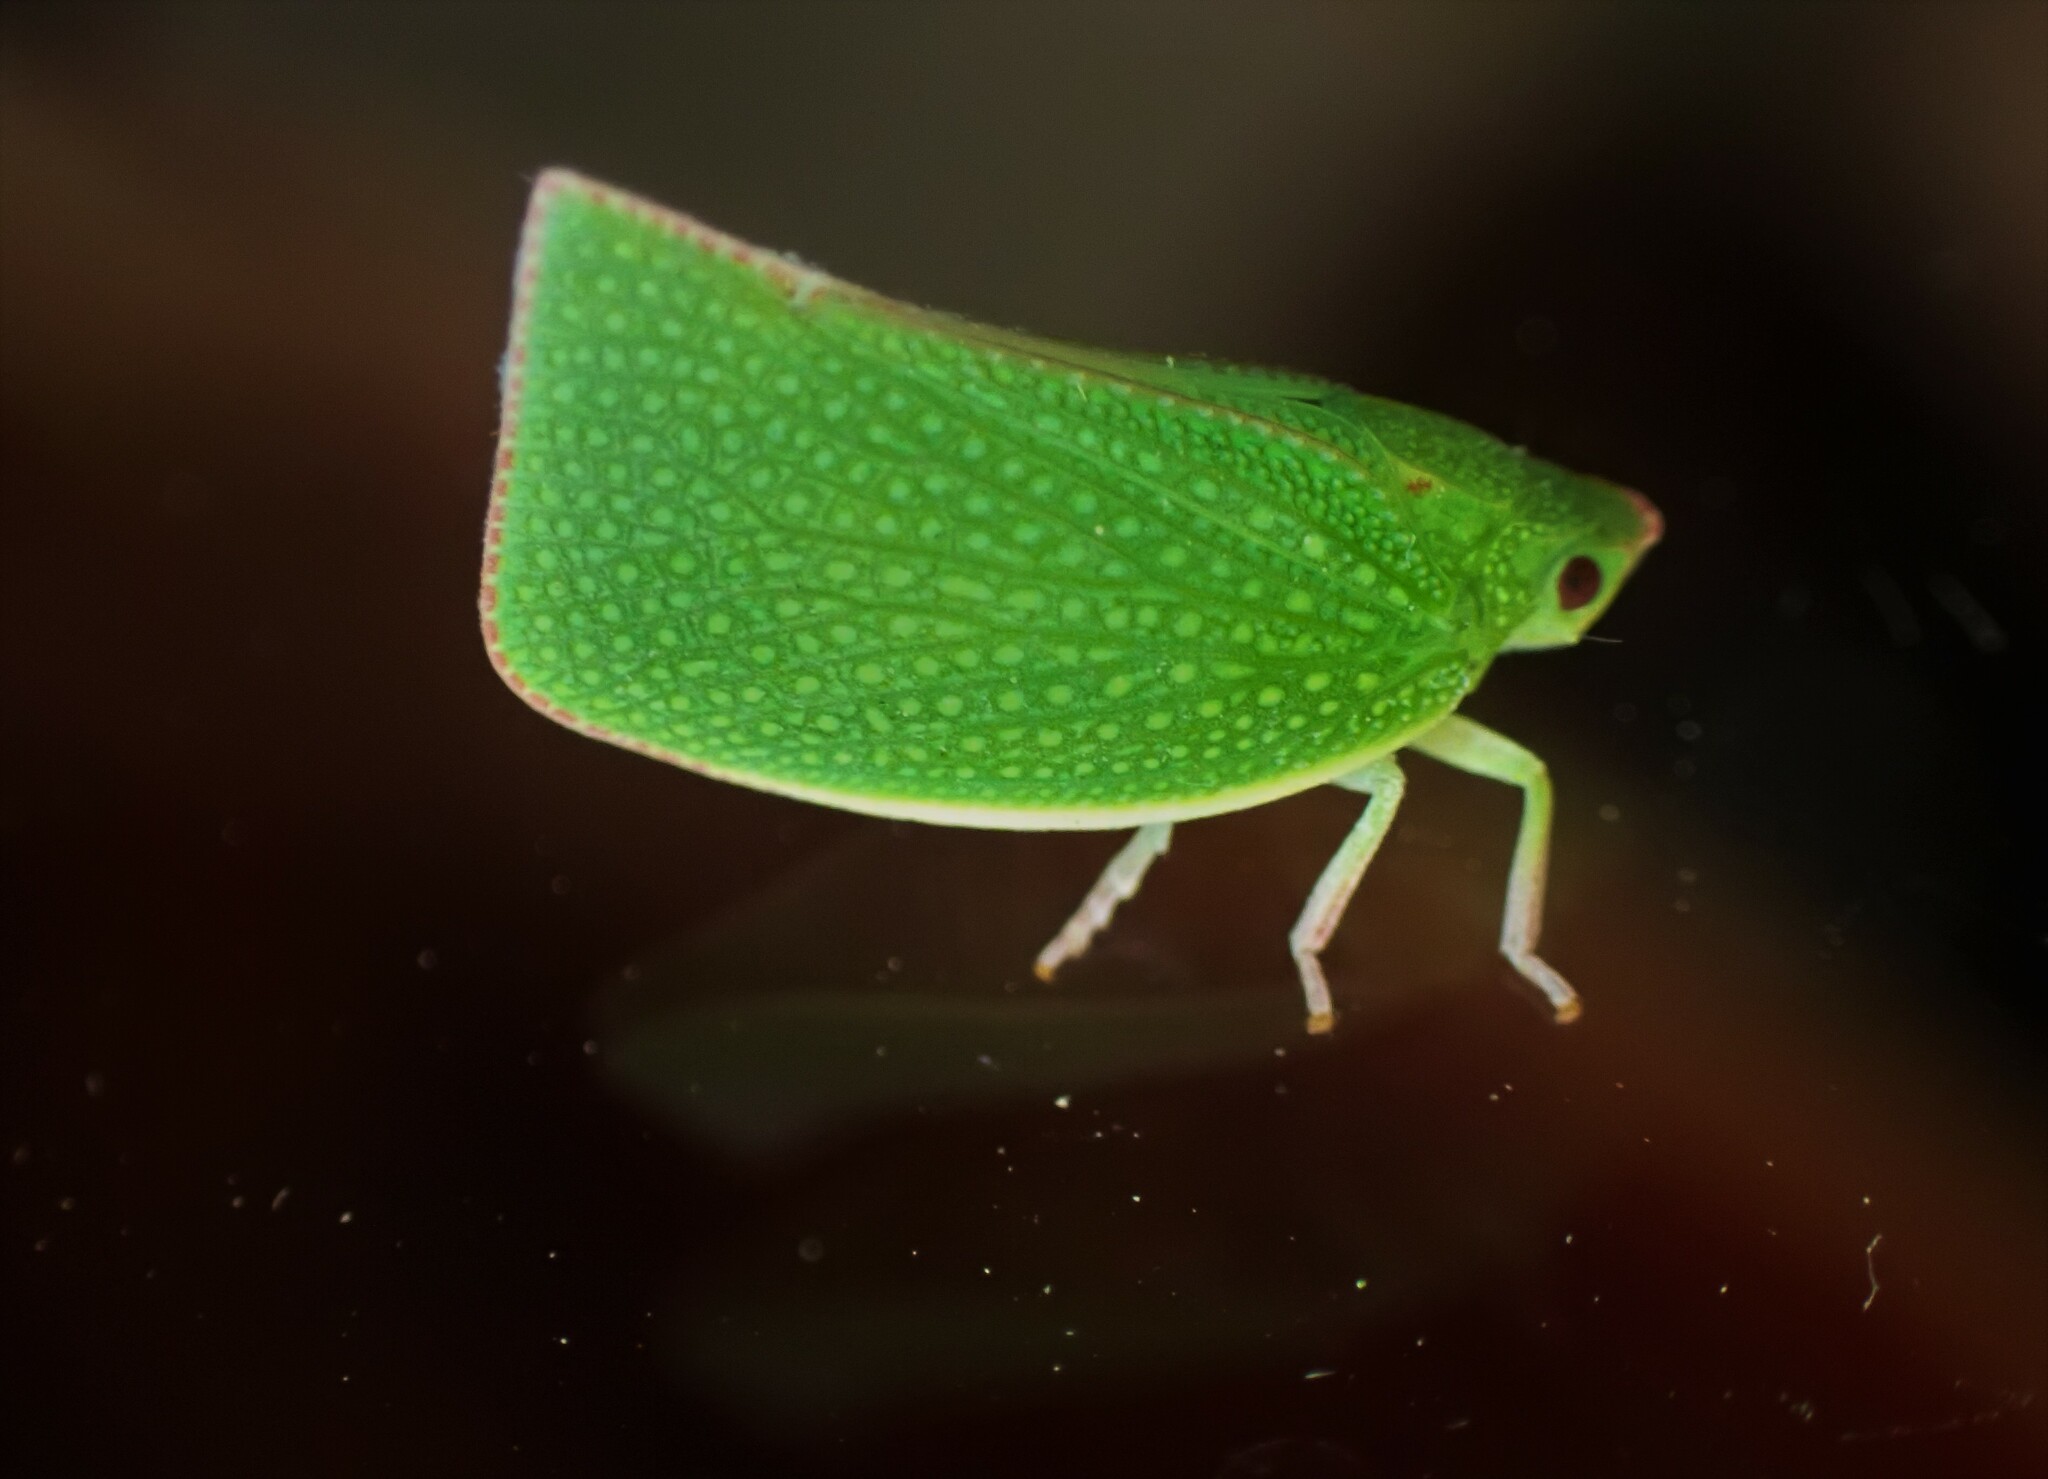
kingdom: Animalia
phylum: Arthropoda
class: Insecta
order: Hemiptera
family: Flatidae
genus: Siphanta
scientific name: Siphanta acuta
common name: Torpedo bug
